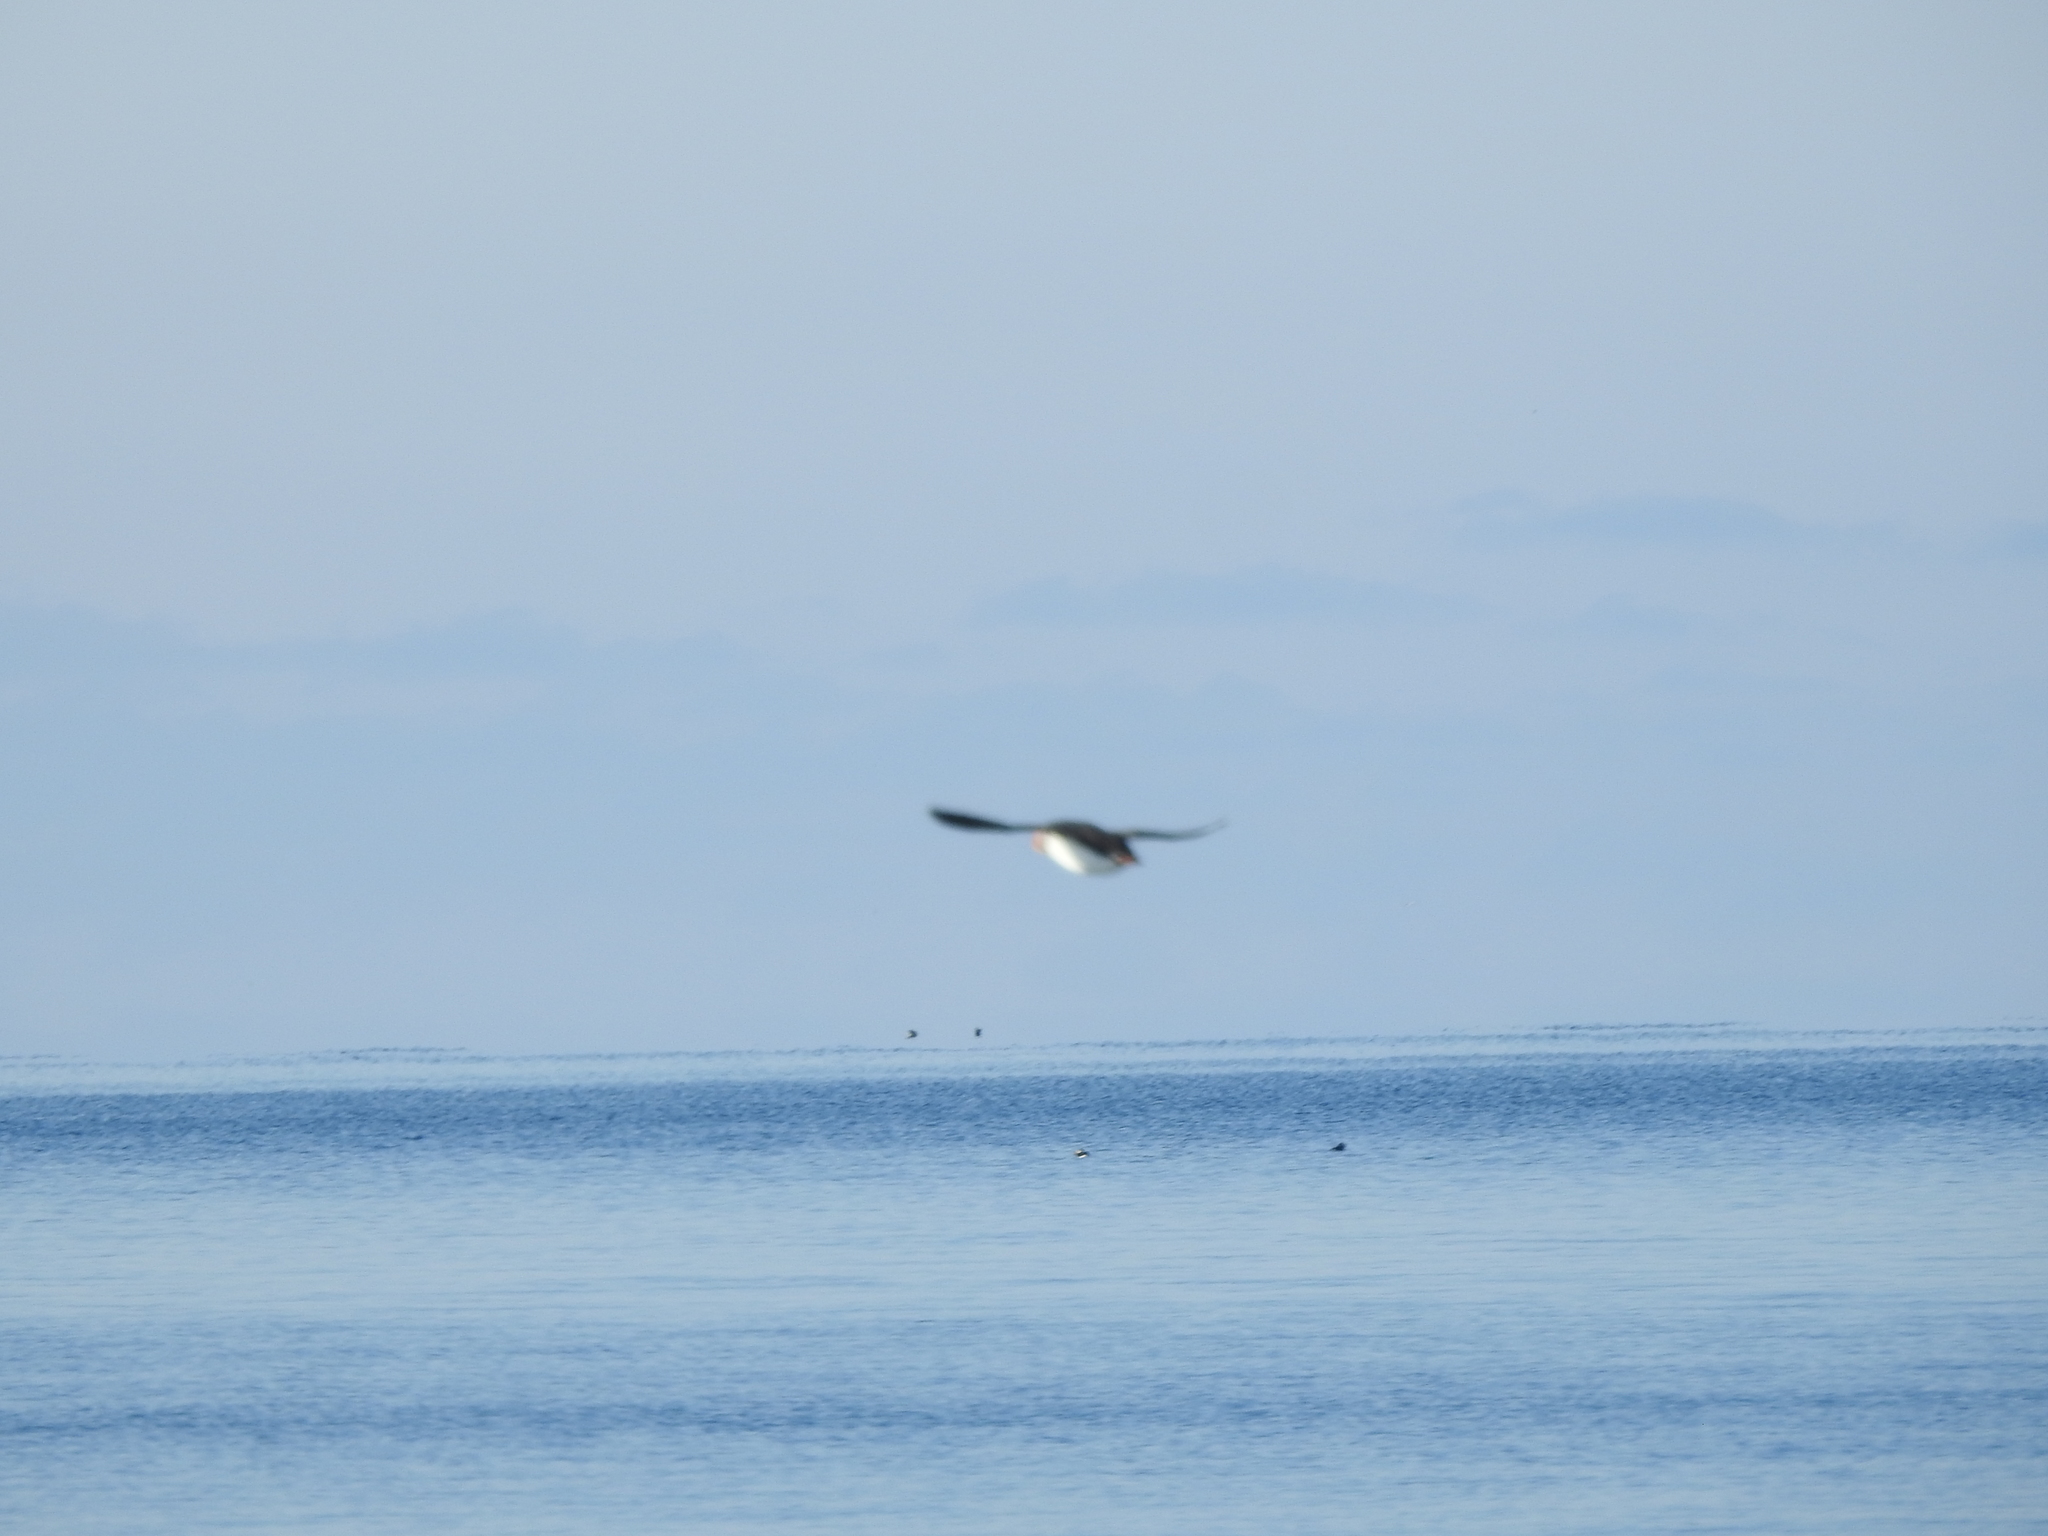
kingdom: Animalia
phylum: Chordata
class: Aves
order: Charadriiformes
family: Alcidae
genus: Fratercula
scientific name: Fratercula arctica
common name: Atlantic puffin
